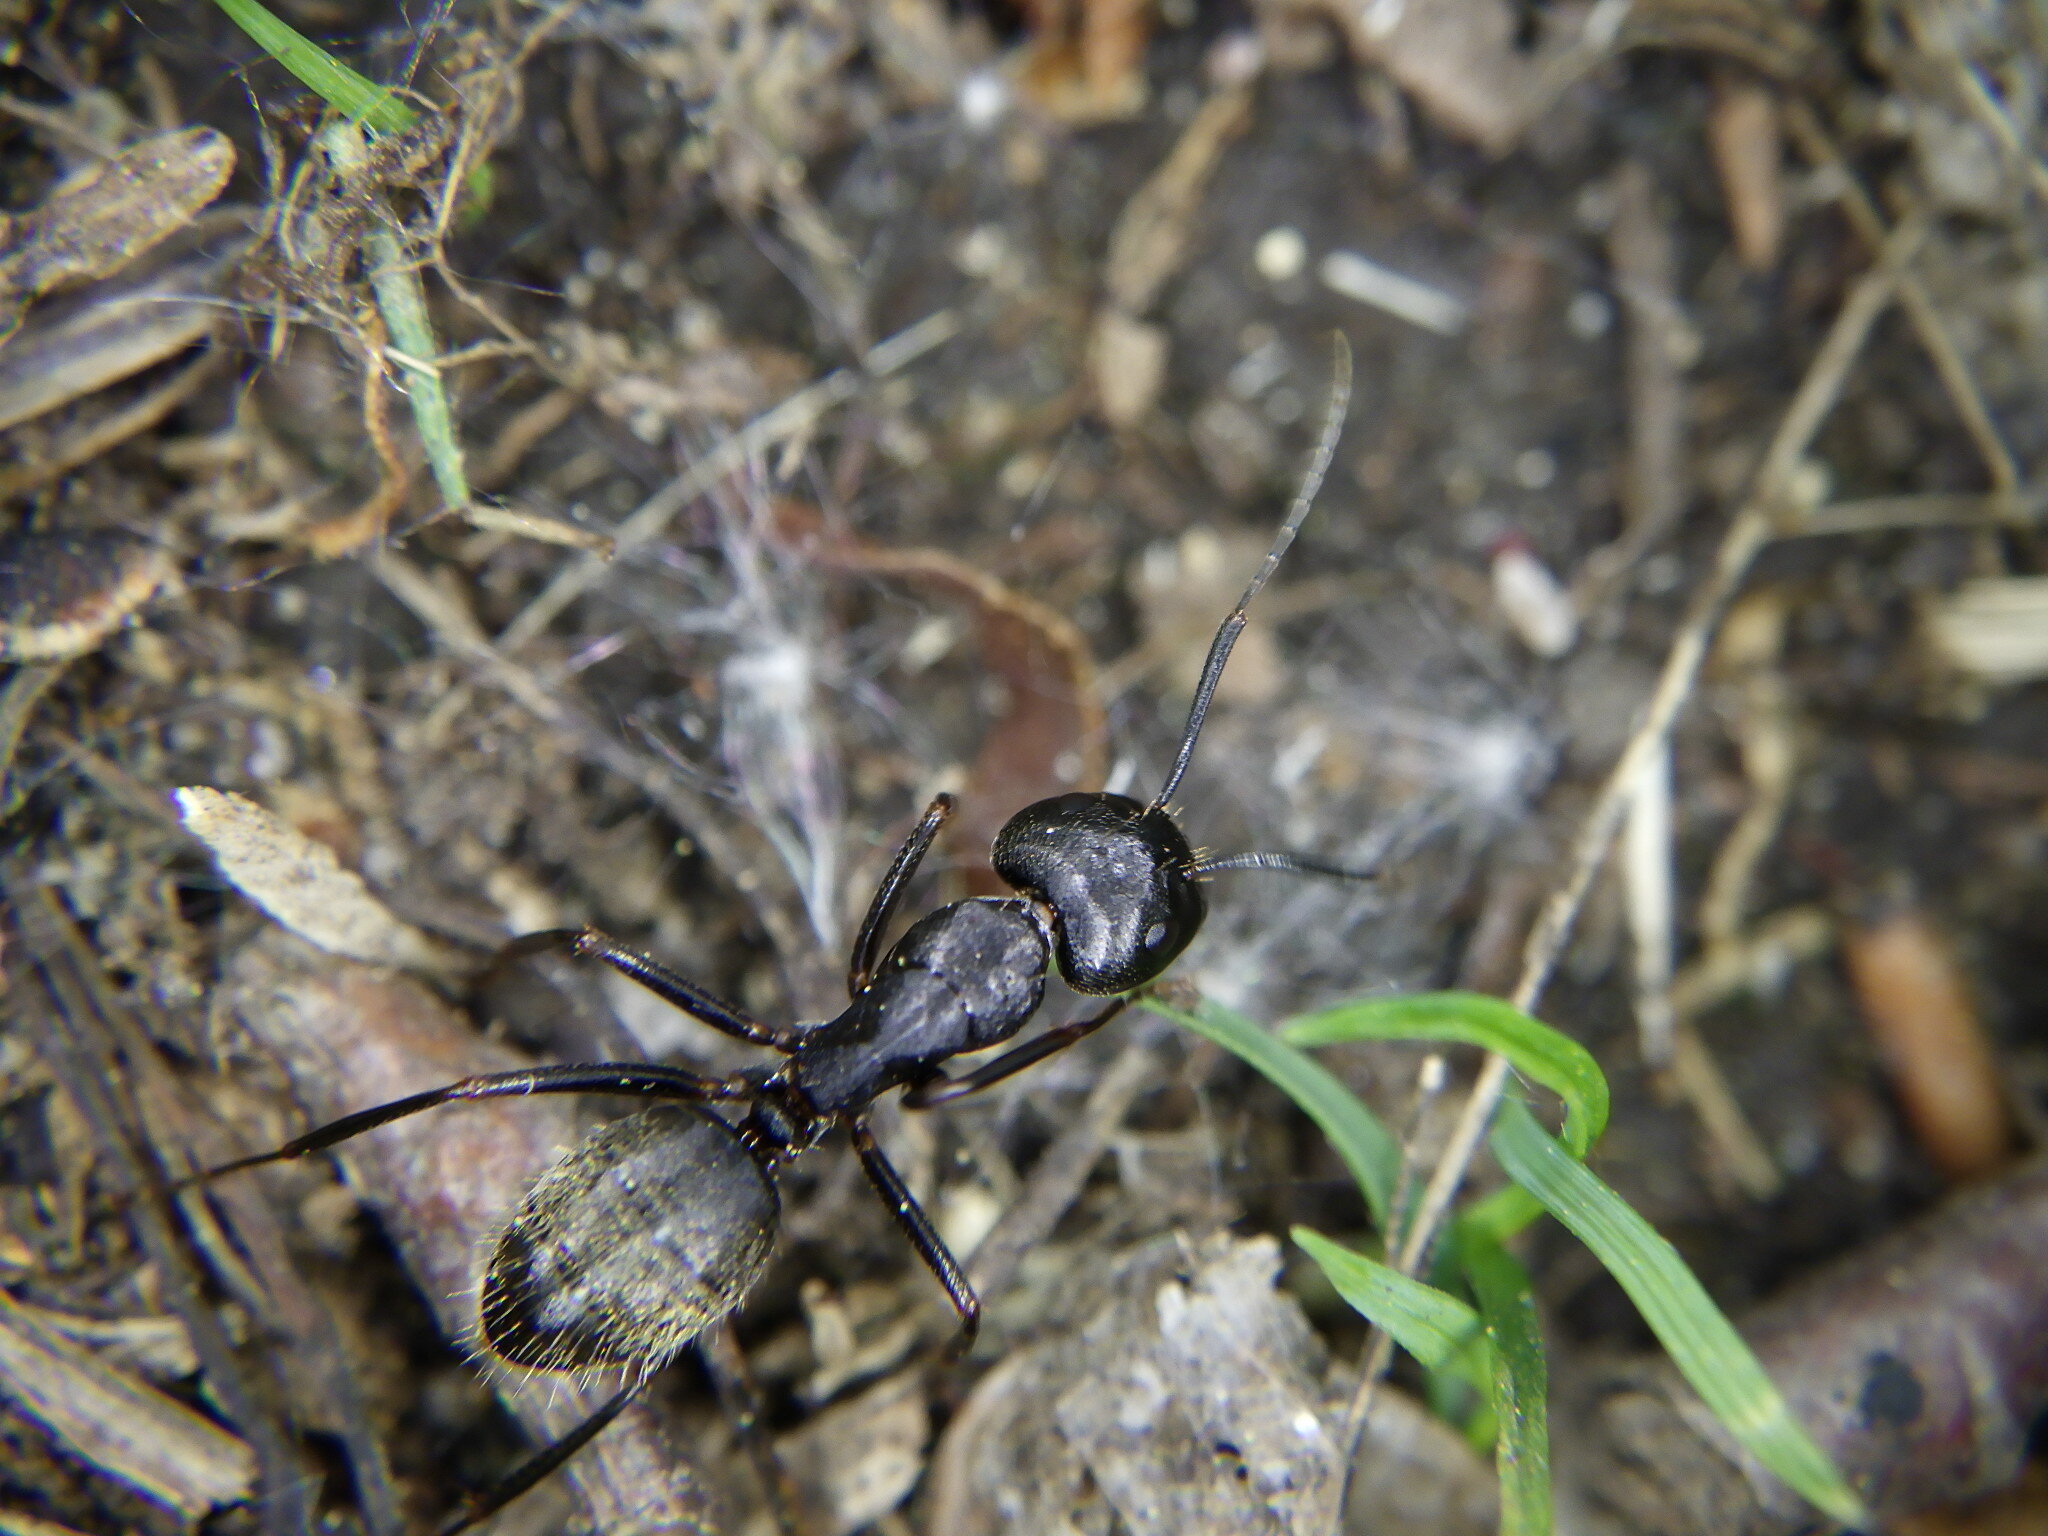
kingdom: Animalia
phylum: Arthropoda
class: Insecta
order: Hymenoptera
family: Formicidae
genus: Camponotus
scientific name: Camponotus pennsylvanicus
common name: Black carpenter ant
